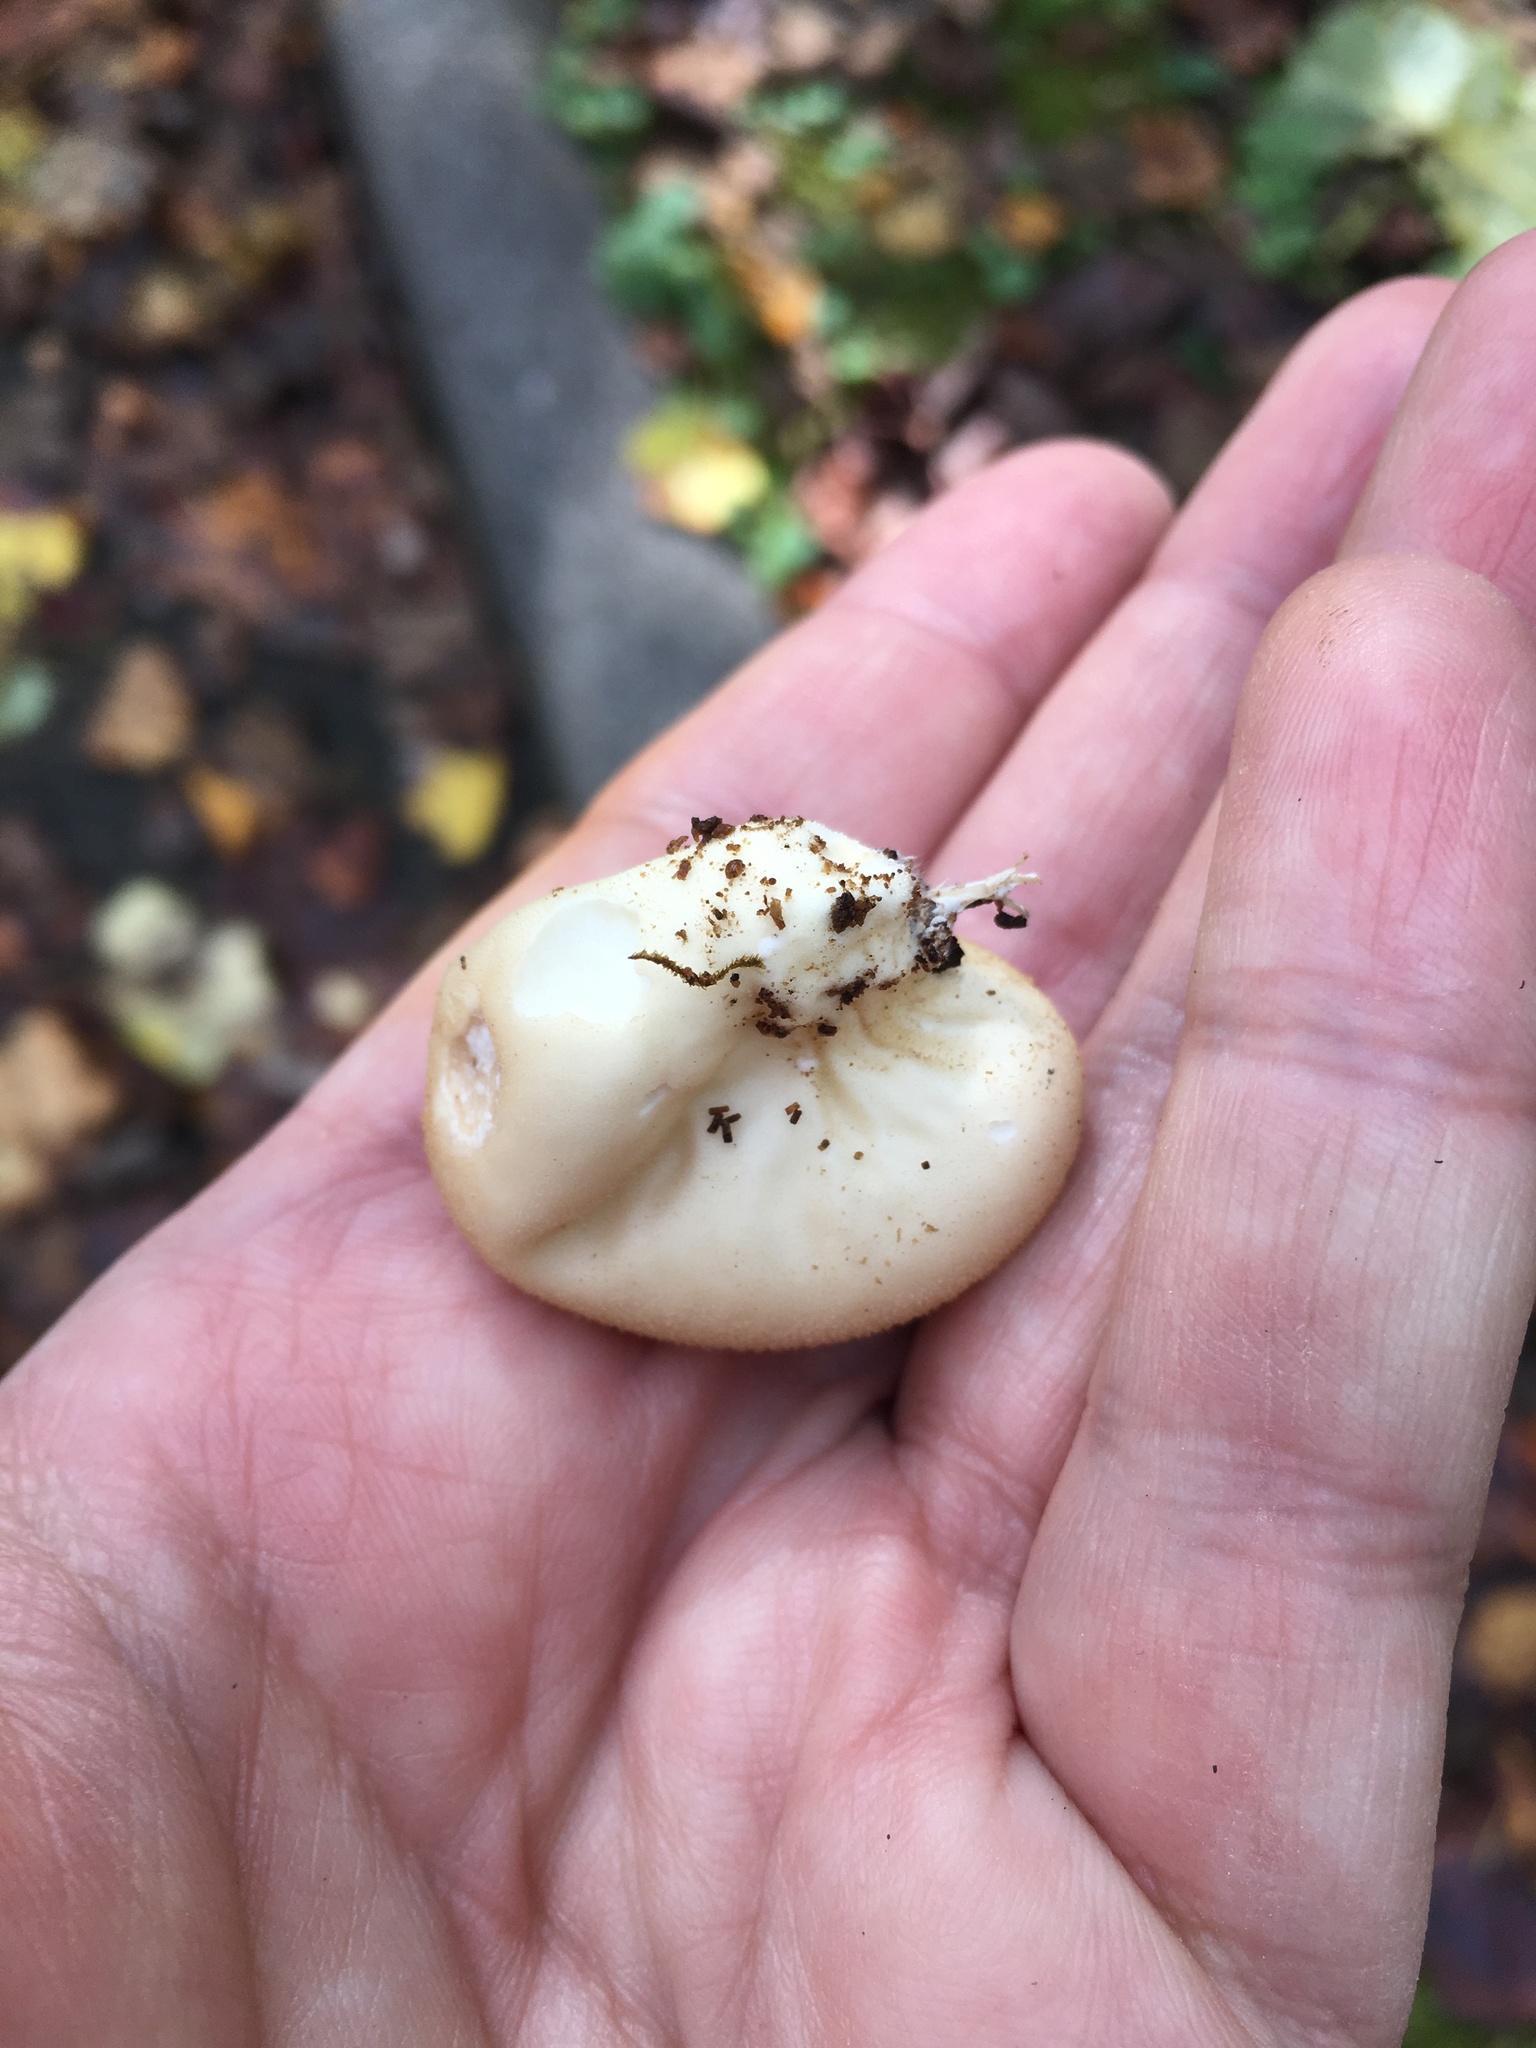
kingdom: Fungi
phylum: Basidiomycota
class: Agaricomycetes
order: Agaricales
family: Lycoperdaceae
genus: Apioperdon
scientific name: Apioperdon pyriforme
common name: Pear-shaped puffball
